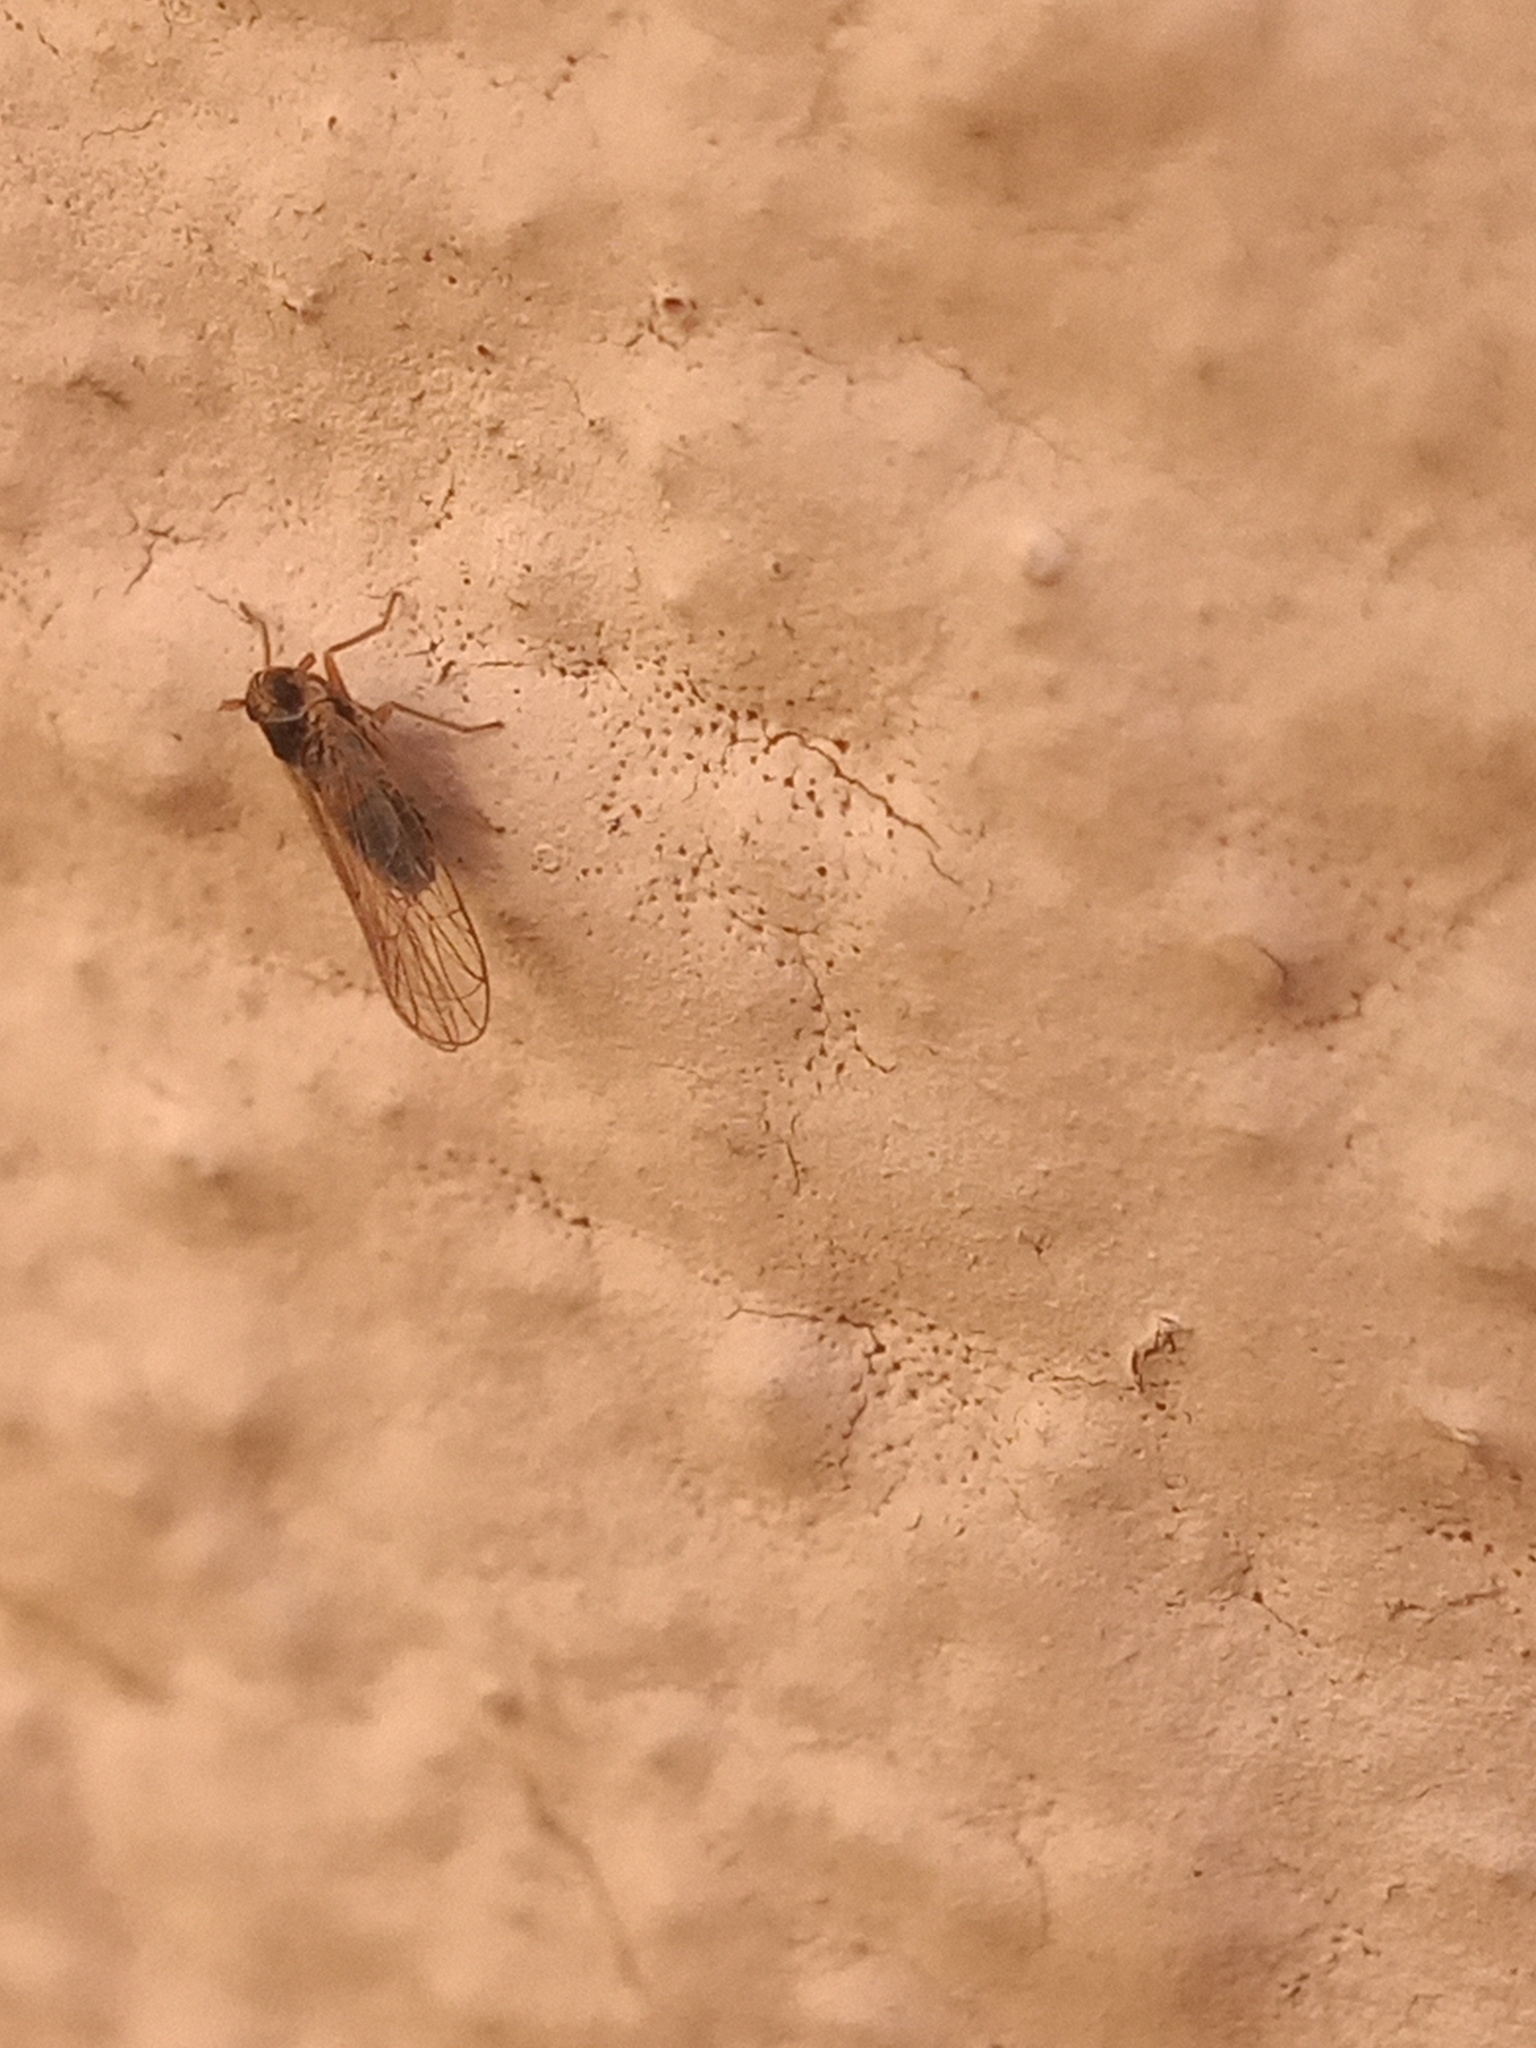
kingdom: Animalia
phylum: Arthropoda
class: Insecta
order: Hemiptera
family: Delphacidae
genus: Chionomus
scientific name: Chionomus
